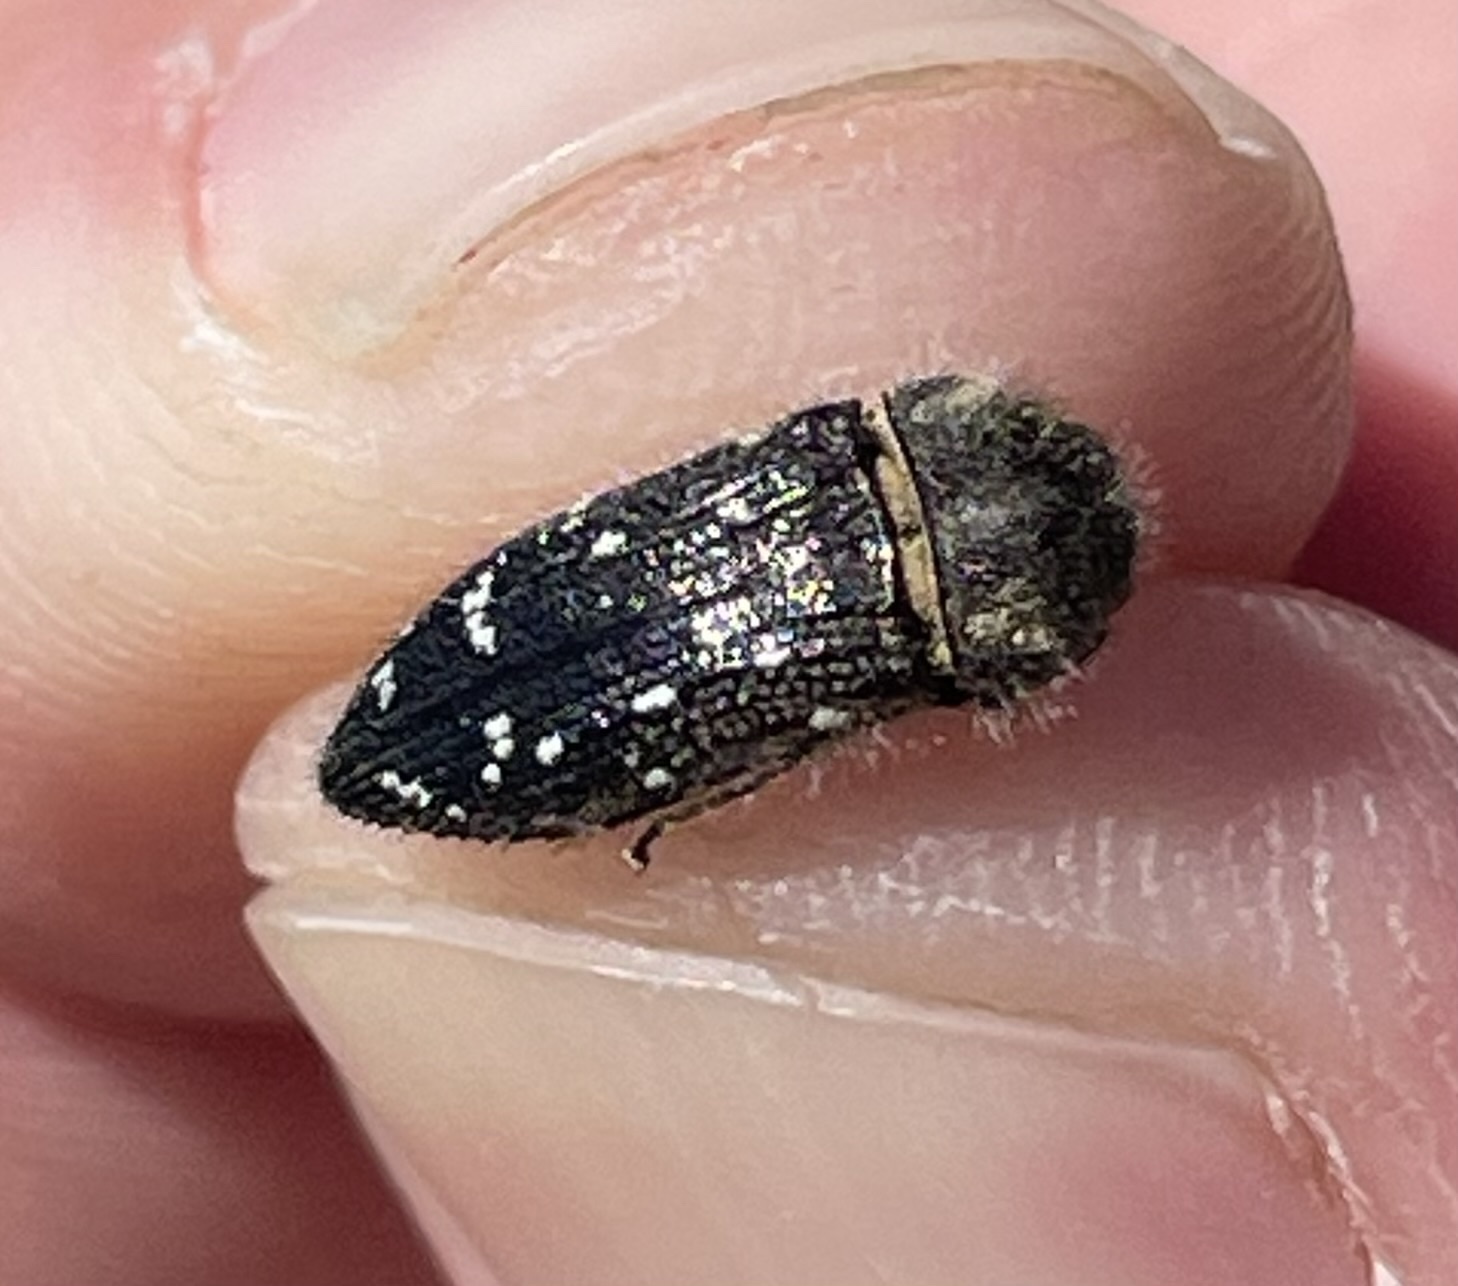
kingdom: Animalia
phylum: Arthropoda
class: Insecta
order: Coleoptera
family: Buprestidae
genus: Acmaeodera
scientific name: Acmaeodera ornatoides
